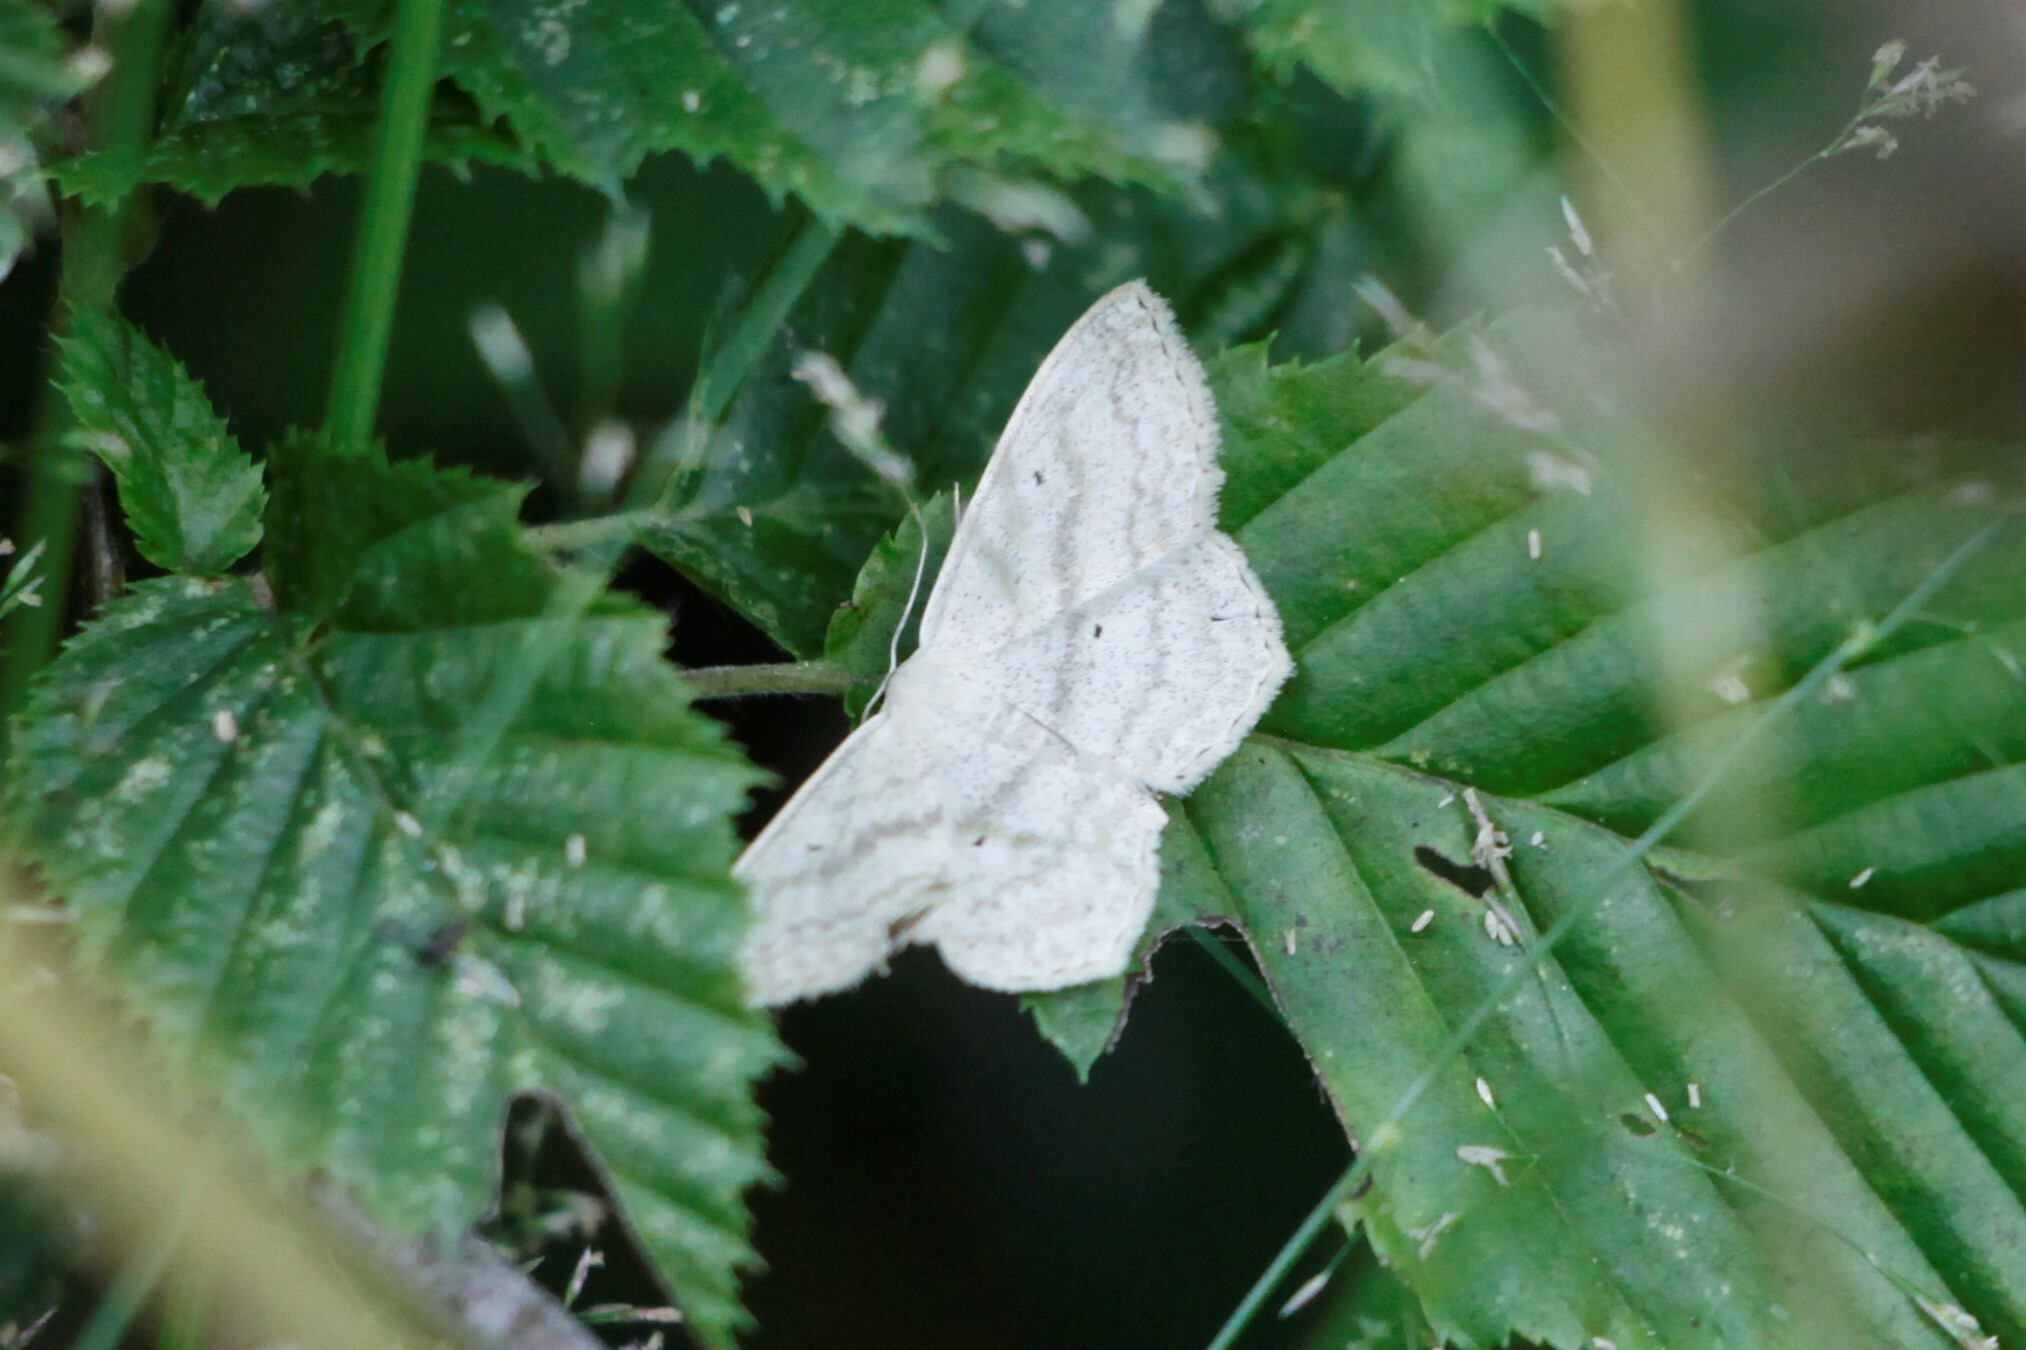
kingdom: Animalia
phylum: Arthropoda
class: Insecta
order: Lepidoptera
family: Geometridae
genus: Scopula
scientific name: Scopula nigropunctata
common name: Sub-angled wave
